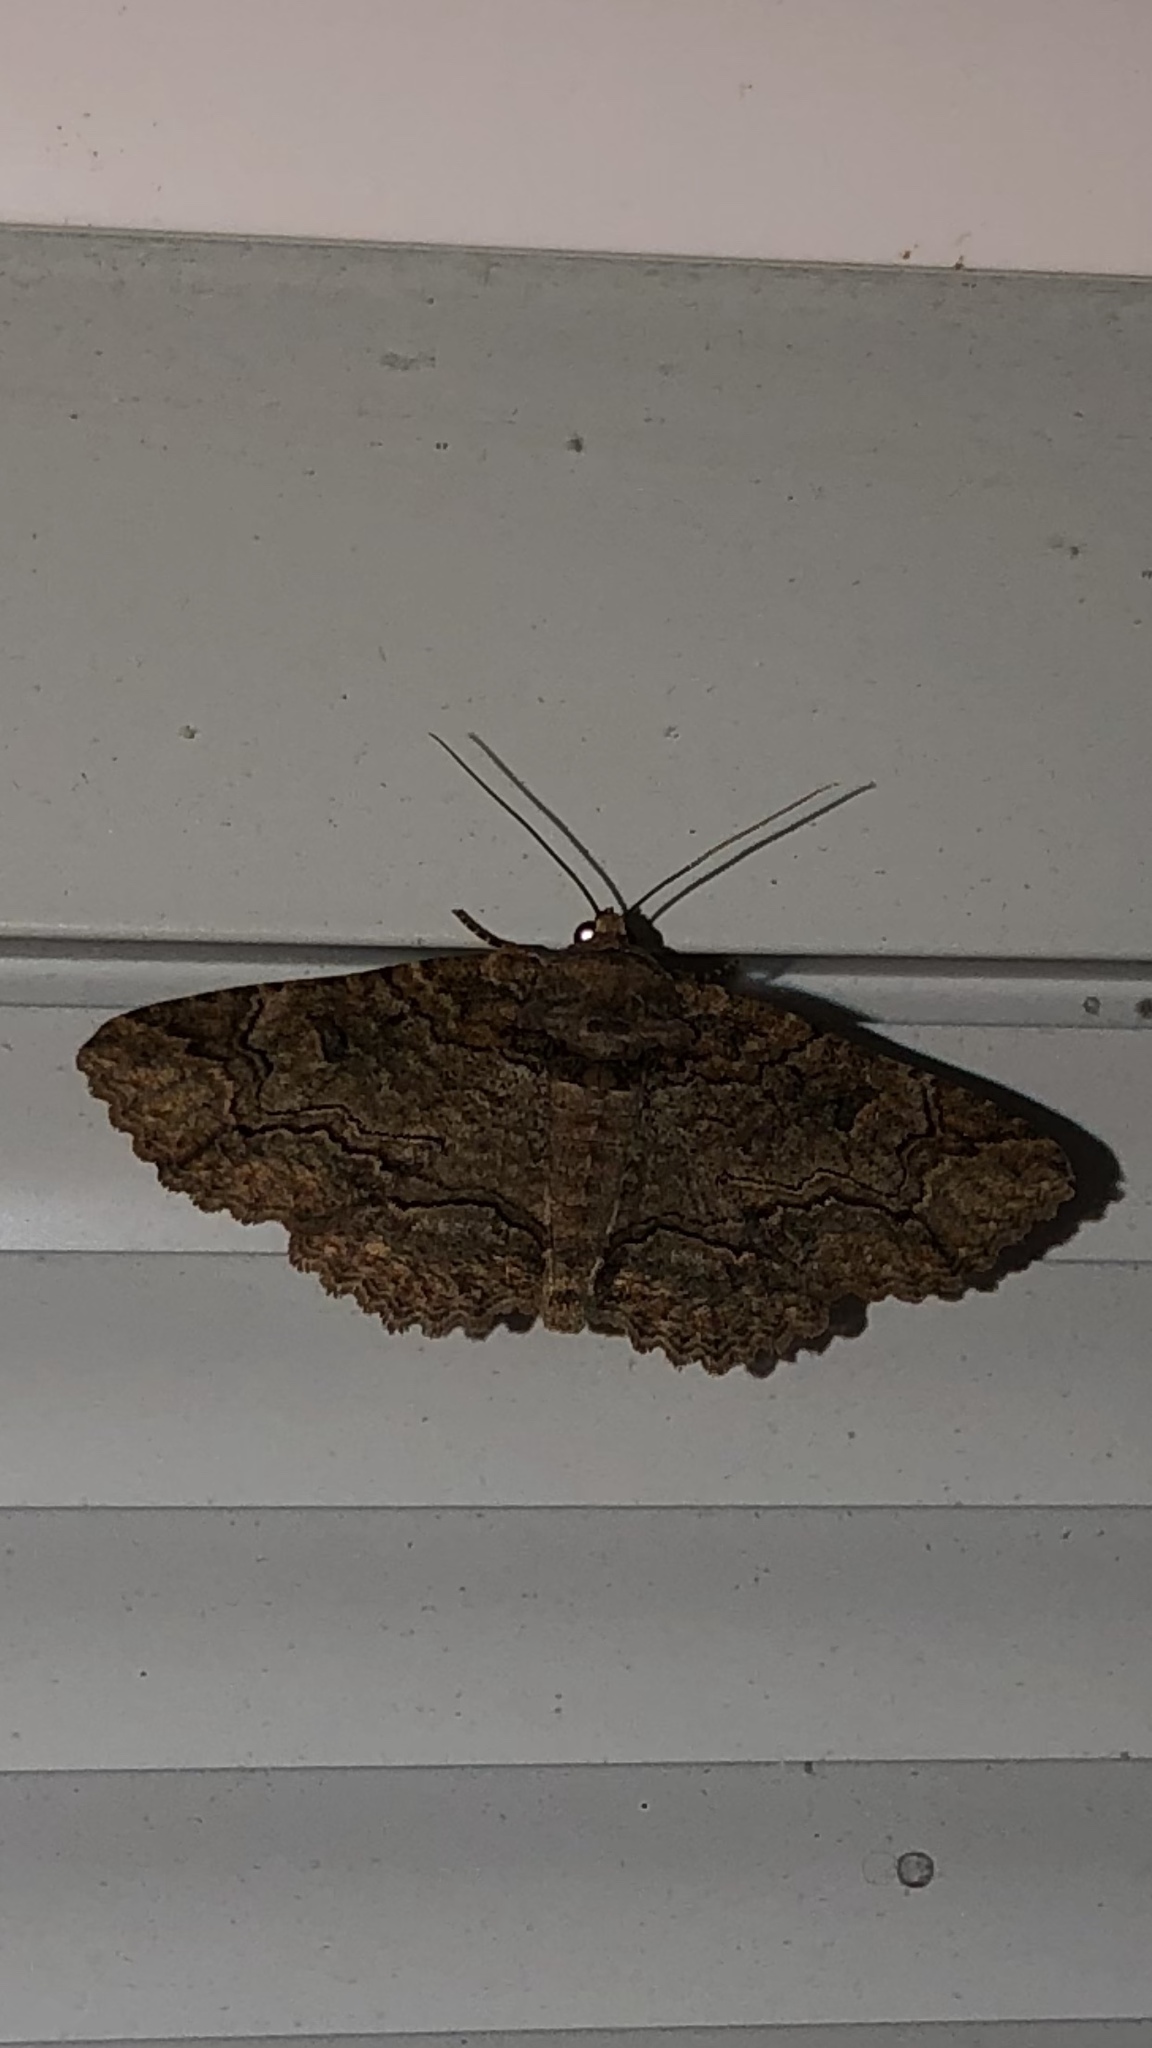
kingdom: Animalia
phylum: Arthropoda
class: Insecta
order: Lepidoptera
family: Erebidae
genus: Zale
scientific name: Zale galbanata
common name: Maple zale
